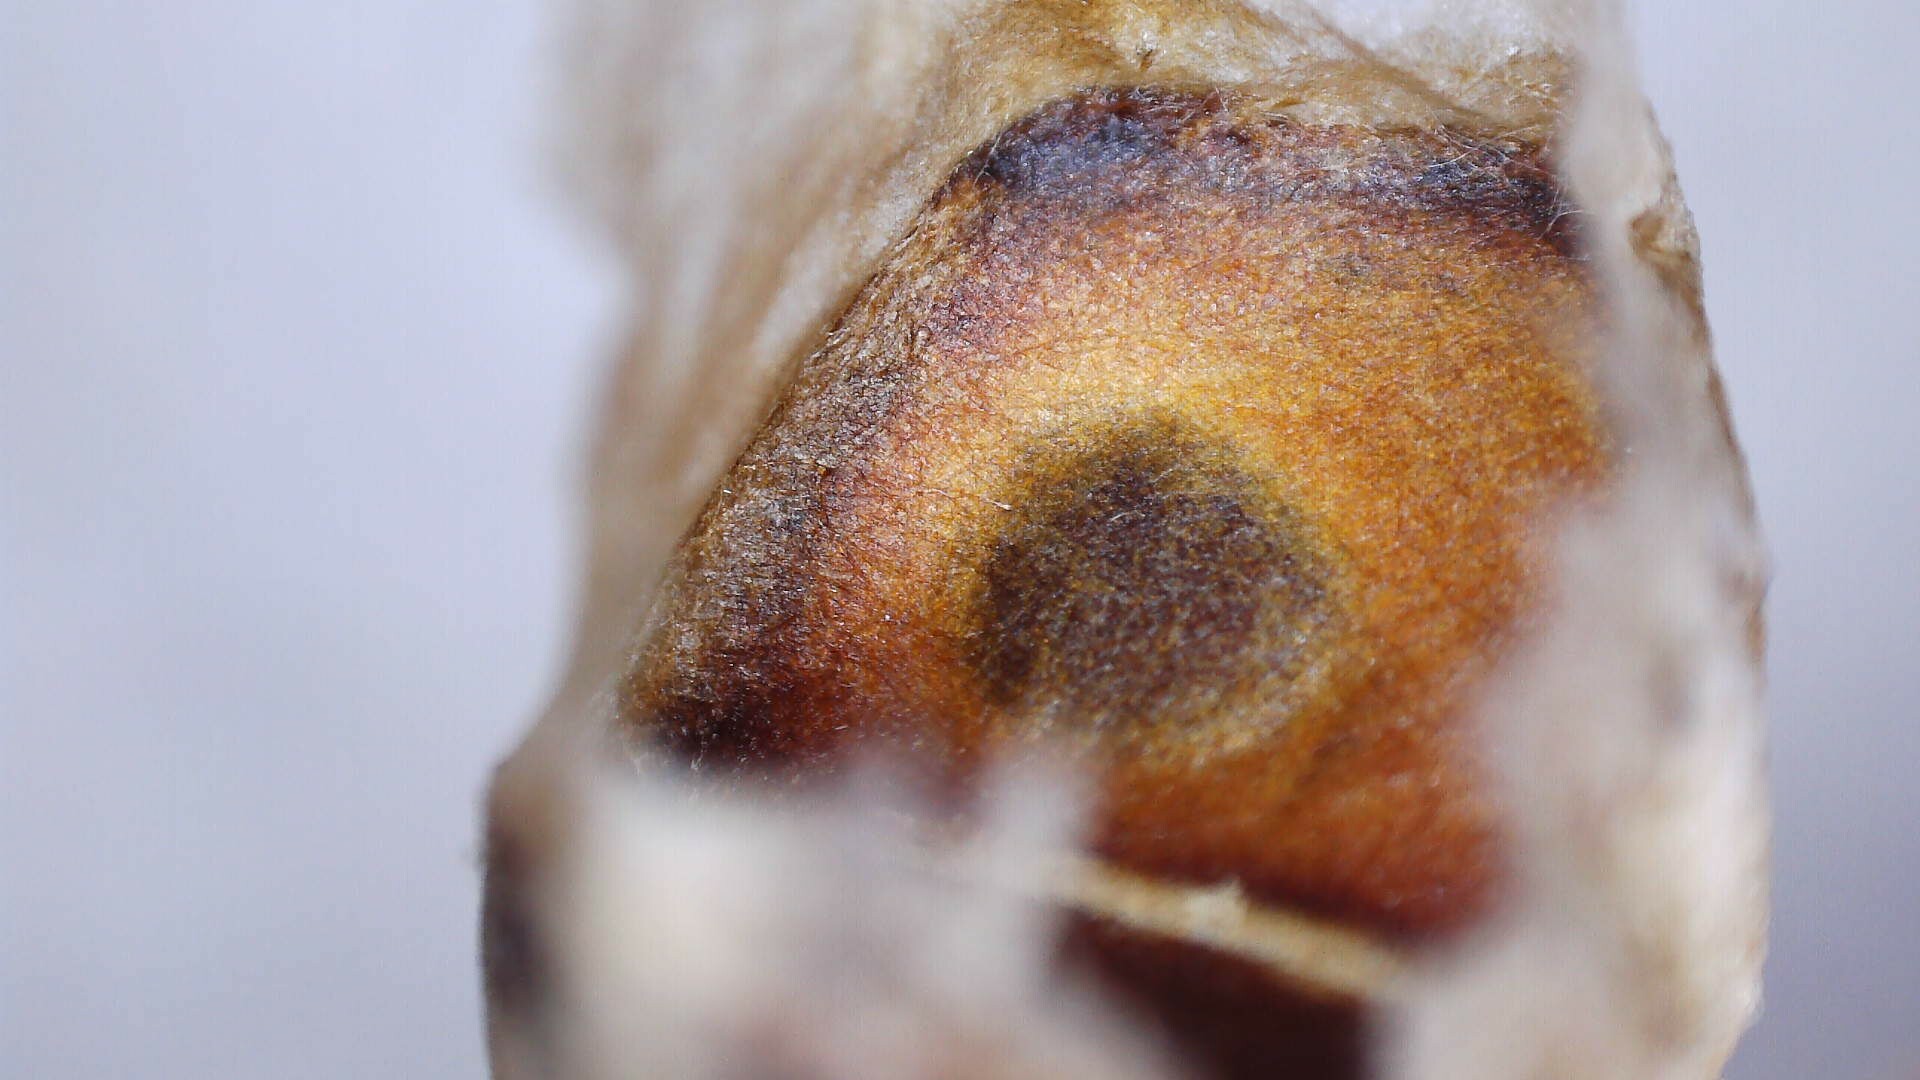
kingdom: Animalia
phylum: Arthropoda
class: Insecta
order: Hymenoptera
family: Vespidae
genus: Dolichovespula
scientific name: Dolichovespula maculata
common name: Bald-faced hornet
